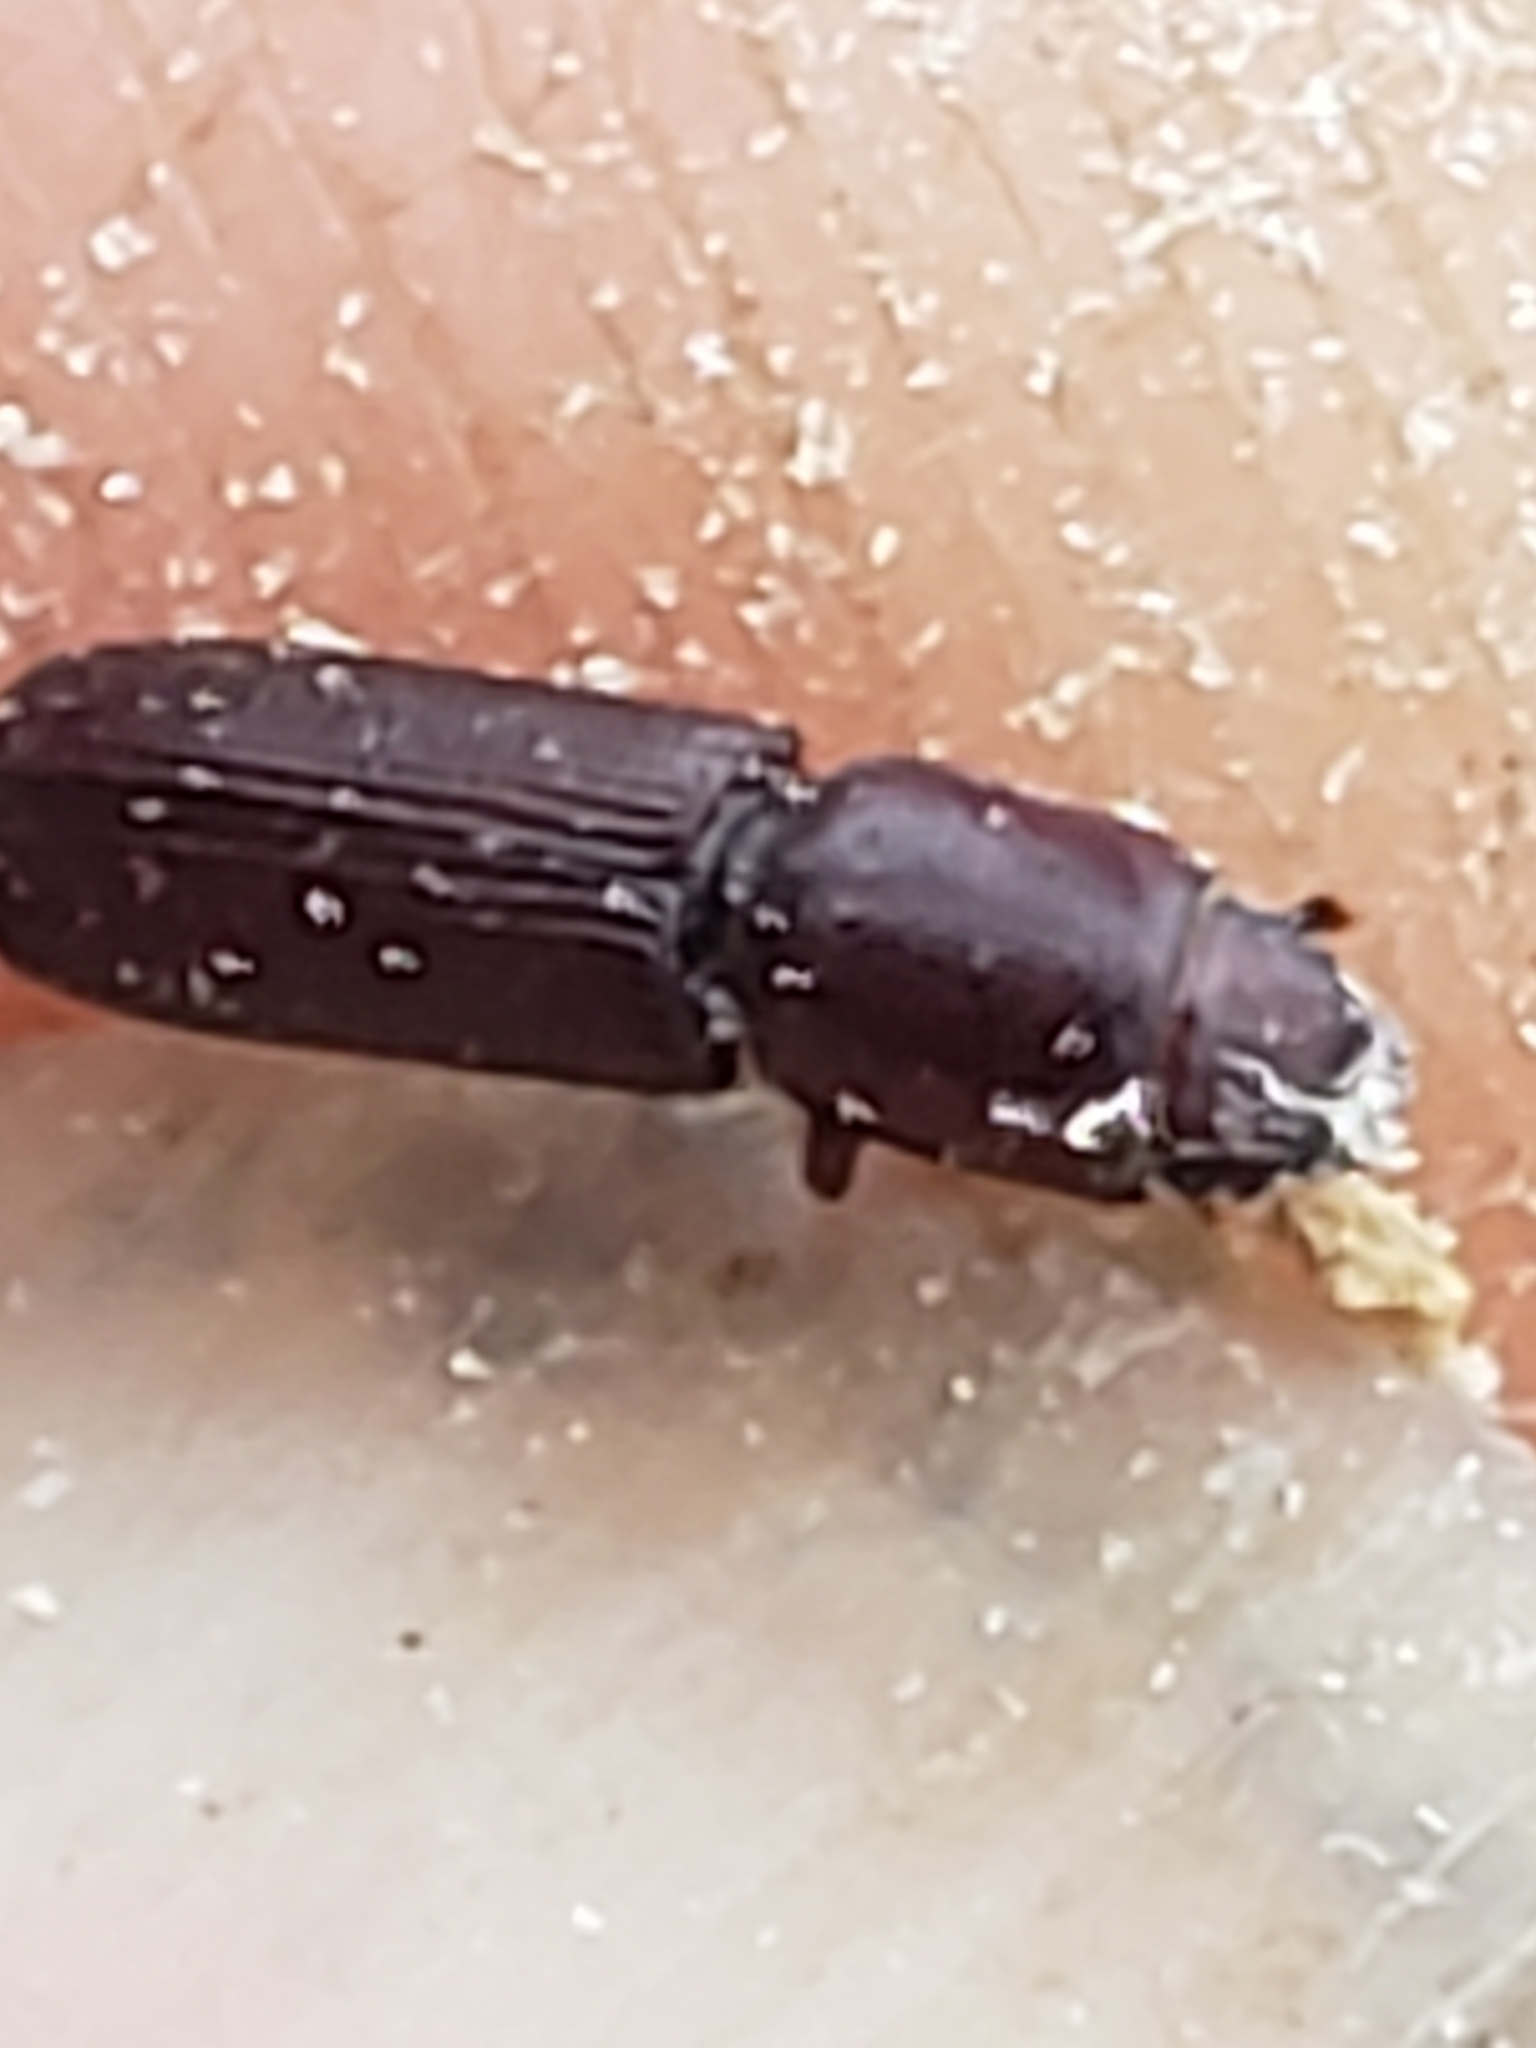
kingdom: Animalia
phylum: Arthropoda
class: Insecta
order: Coleoptera
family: Trogossitidae
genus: Airora
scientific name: Airora cylindrica
